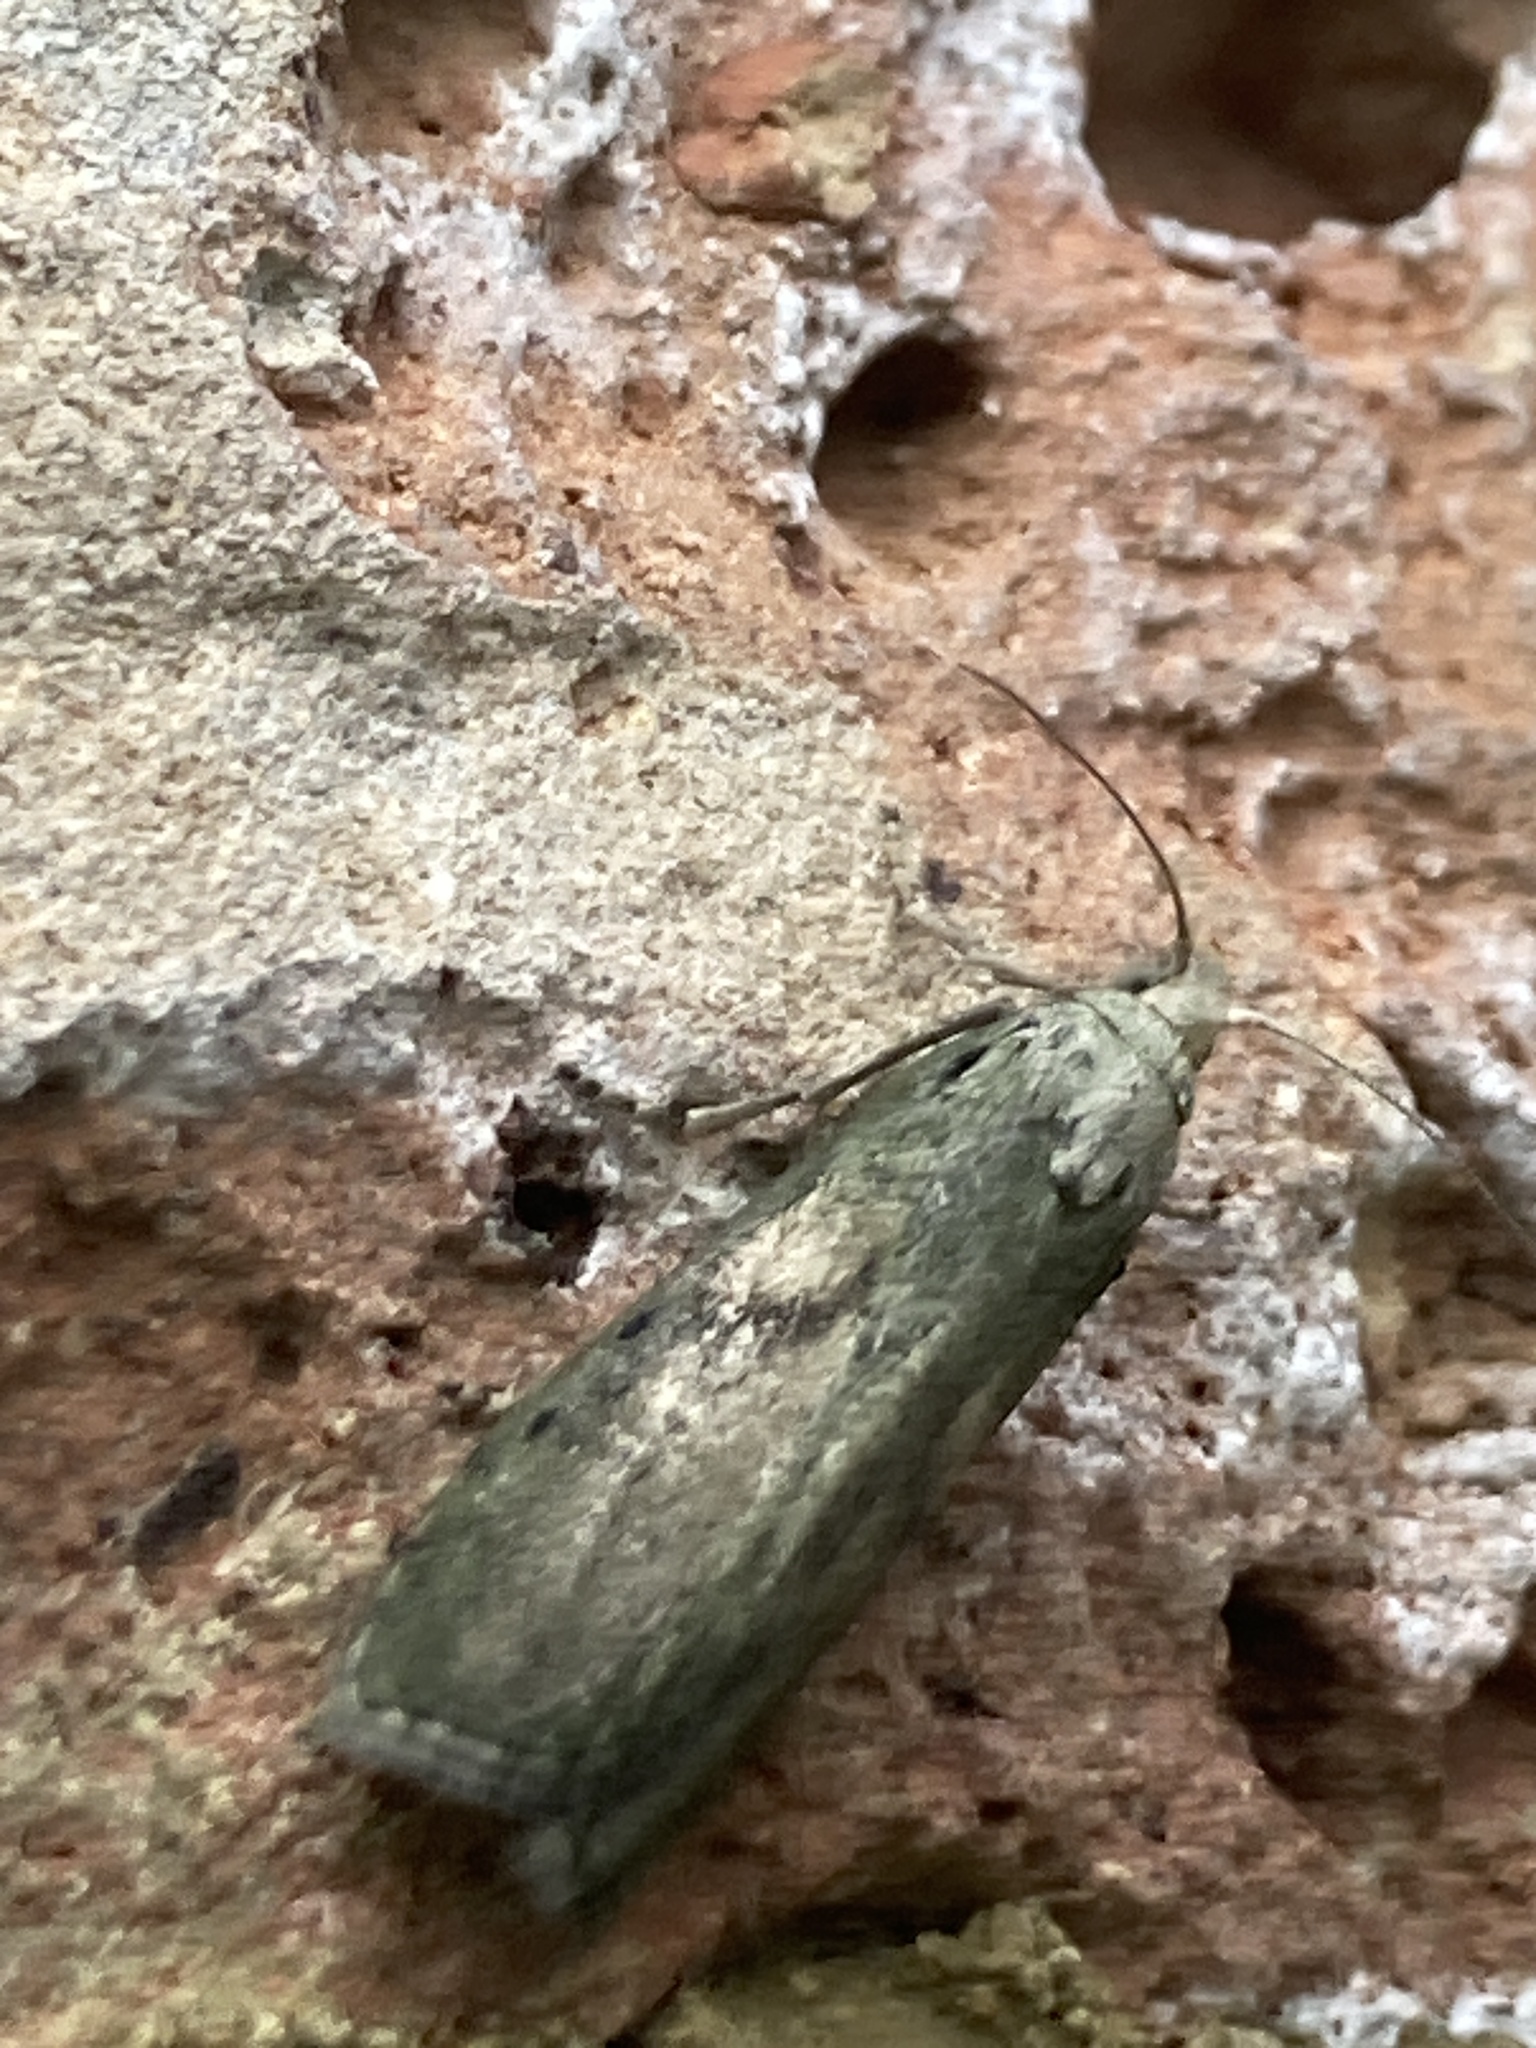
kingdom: Animalia
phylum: Arthropoda
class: Insecta
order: Lepidoptera
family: Pyralidae
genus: Aphomia
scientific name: Aphomia sociella
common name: Bee moth
